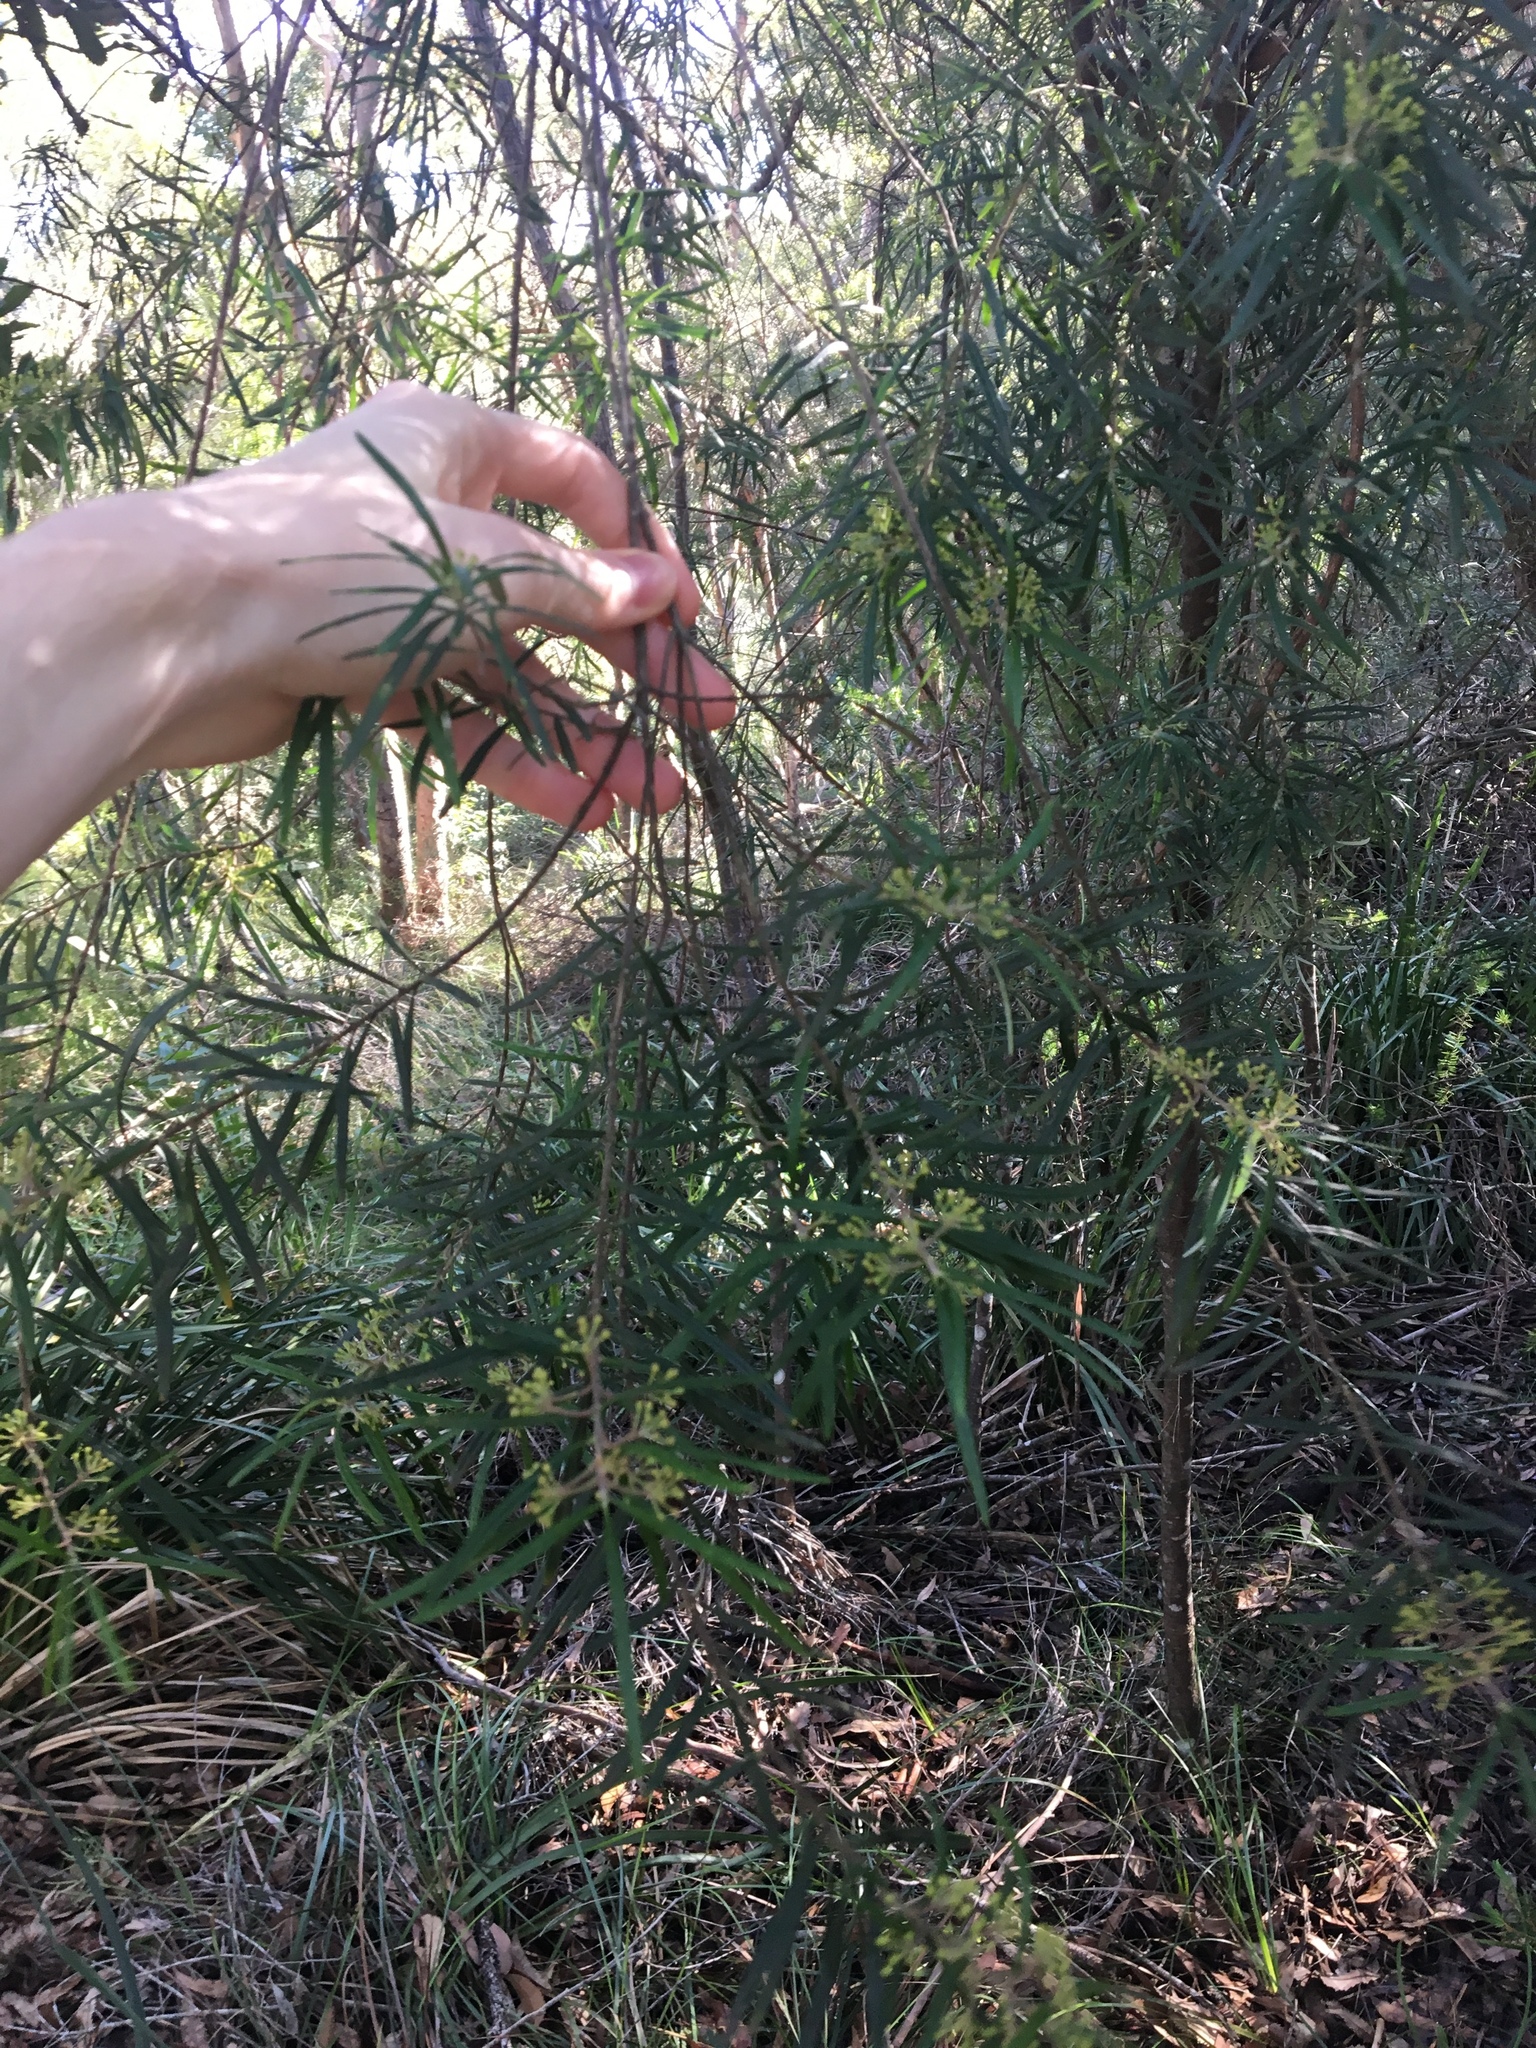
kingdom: Plantae
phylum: Tracheophyta
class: Magnoliopsida
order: Sapindales
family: Rutaceae
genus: Leionema
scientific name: Leionema dentatum
